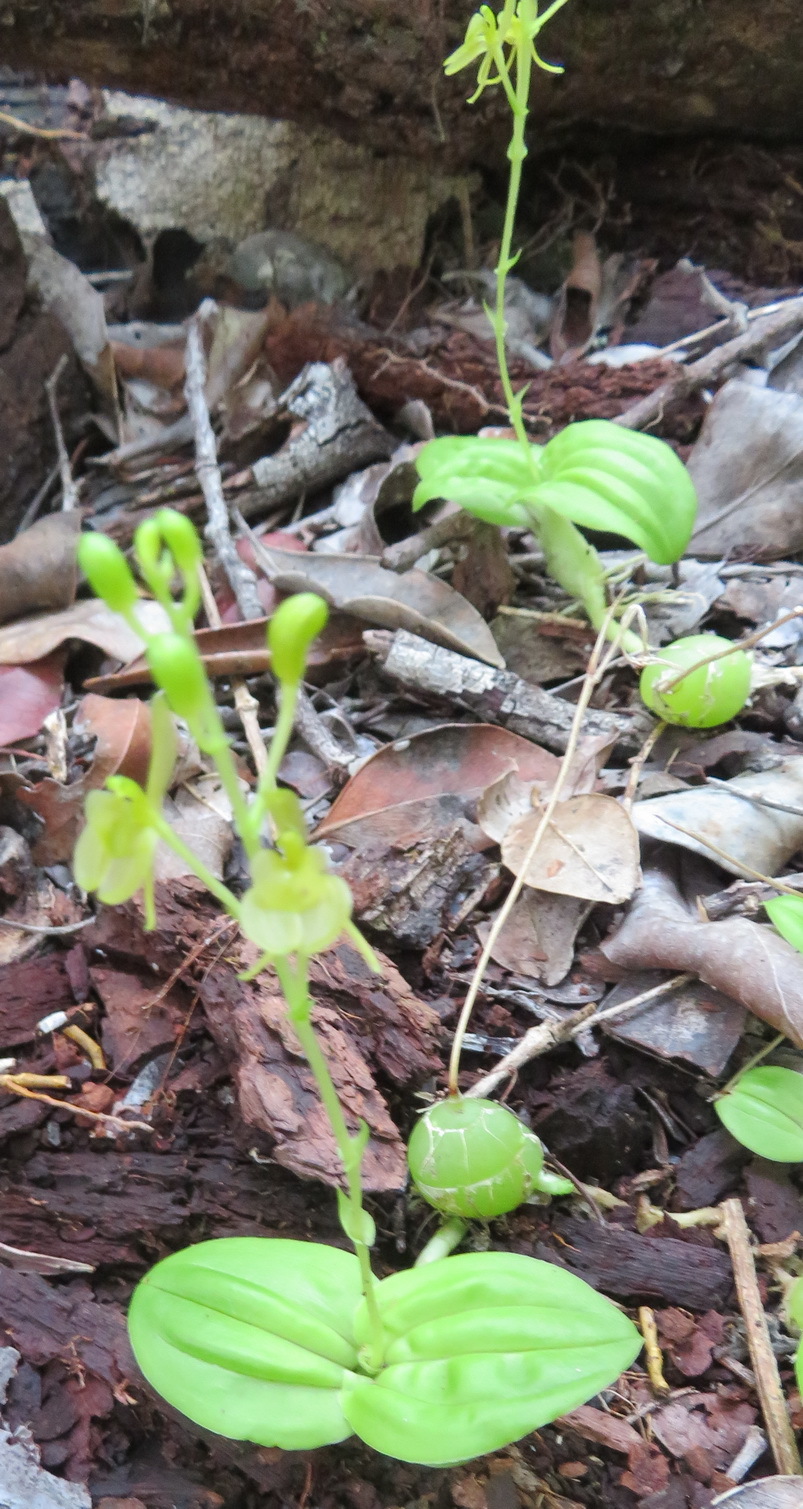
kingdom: Plantae
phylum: Tracheophyta
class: Liliopsida
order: Asparagales
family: Orchidaceae
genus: Liparis
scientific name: Liparis remota
